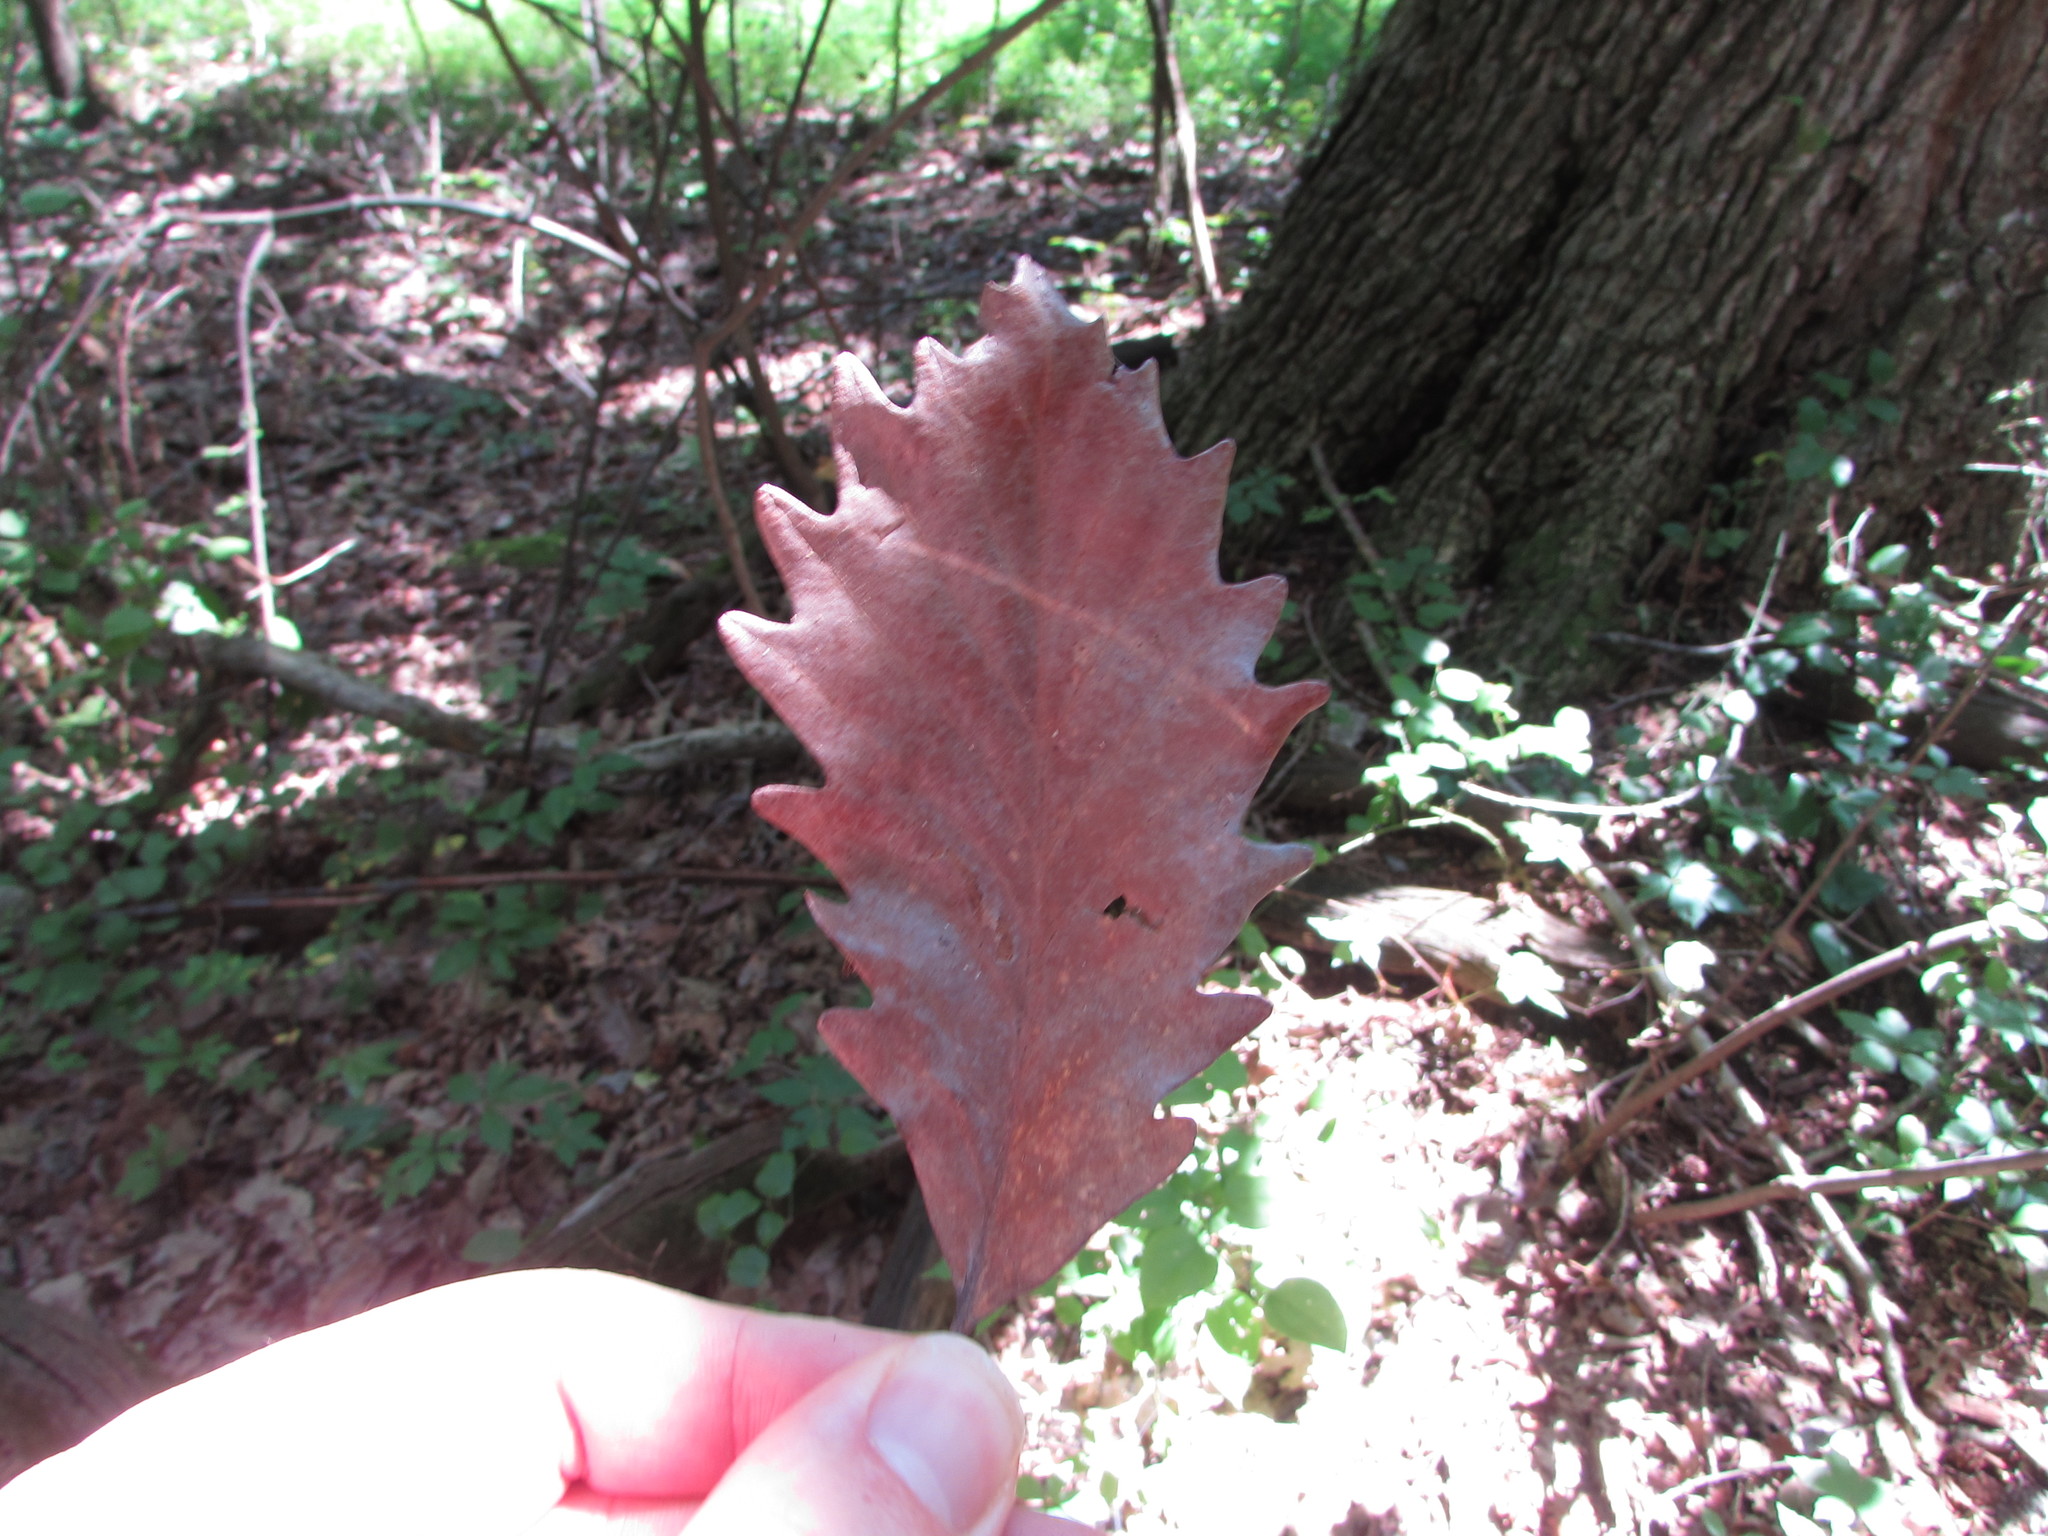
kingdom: Plantae
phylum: Tracheophyta
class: Magnoliopsida
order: Fagales
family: Fagaceae
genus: Quercus
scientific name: Quercus michauxii
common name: Swamp chestnut oak
